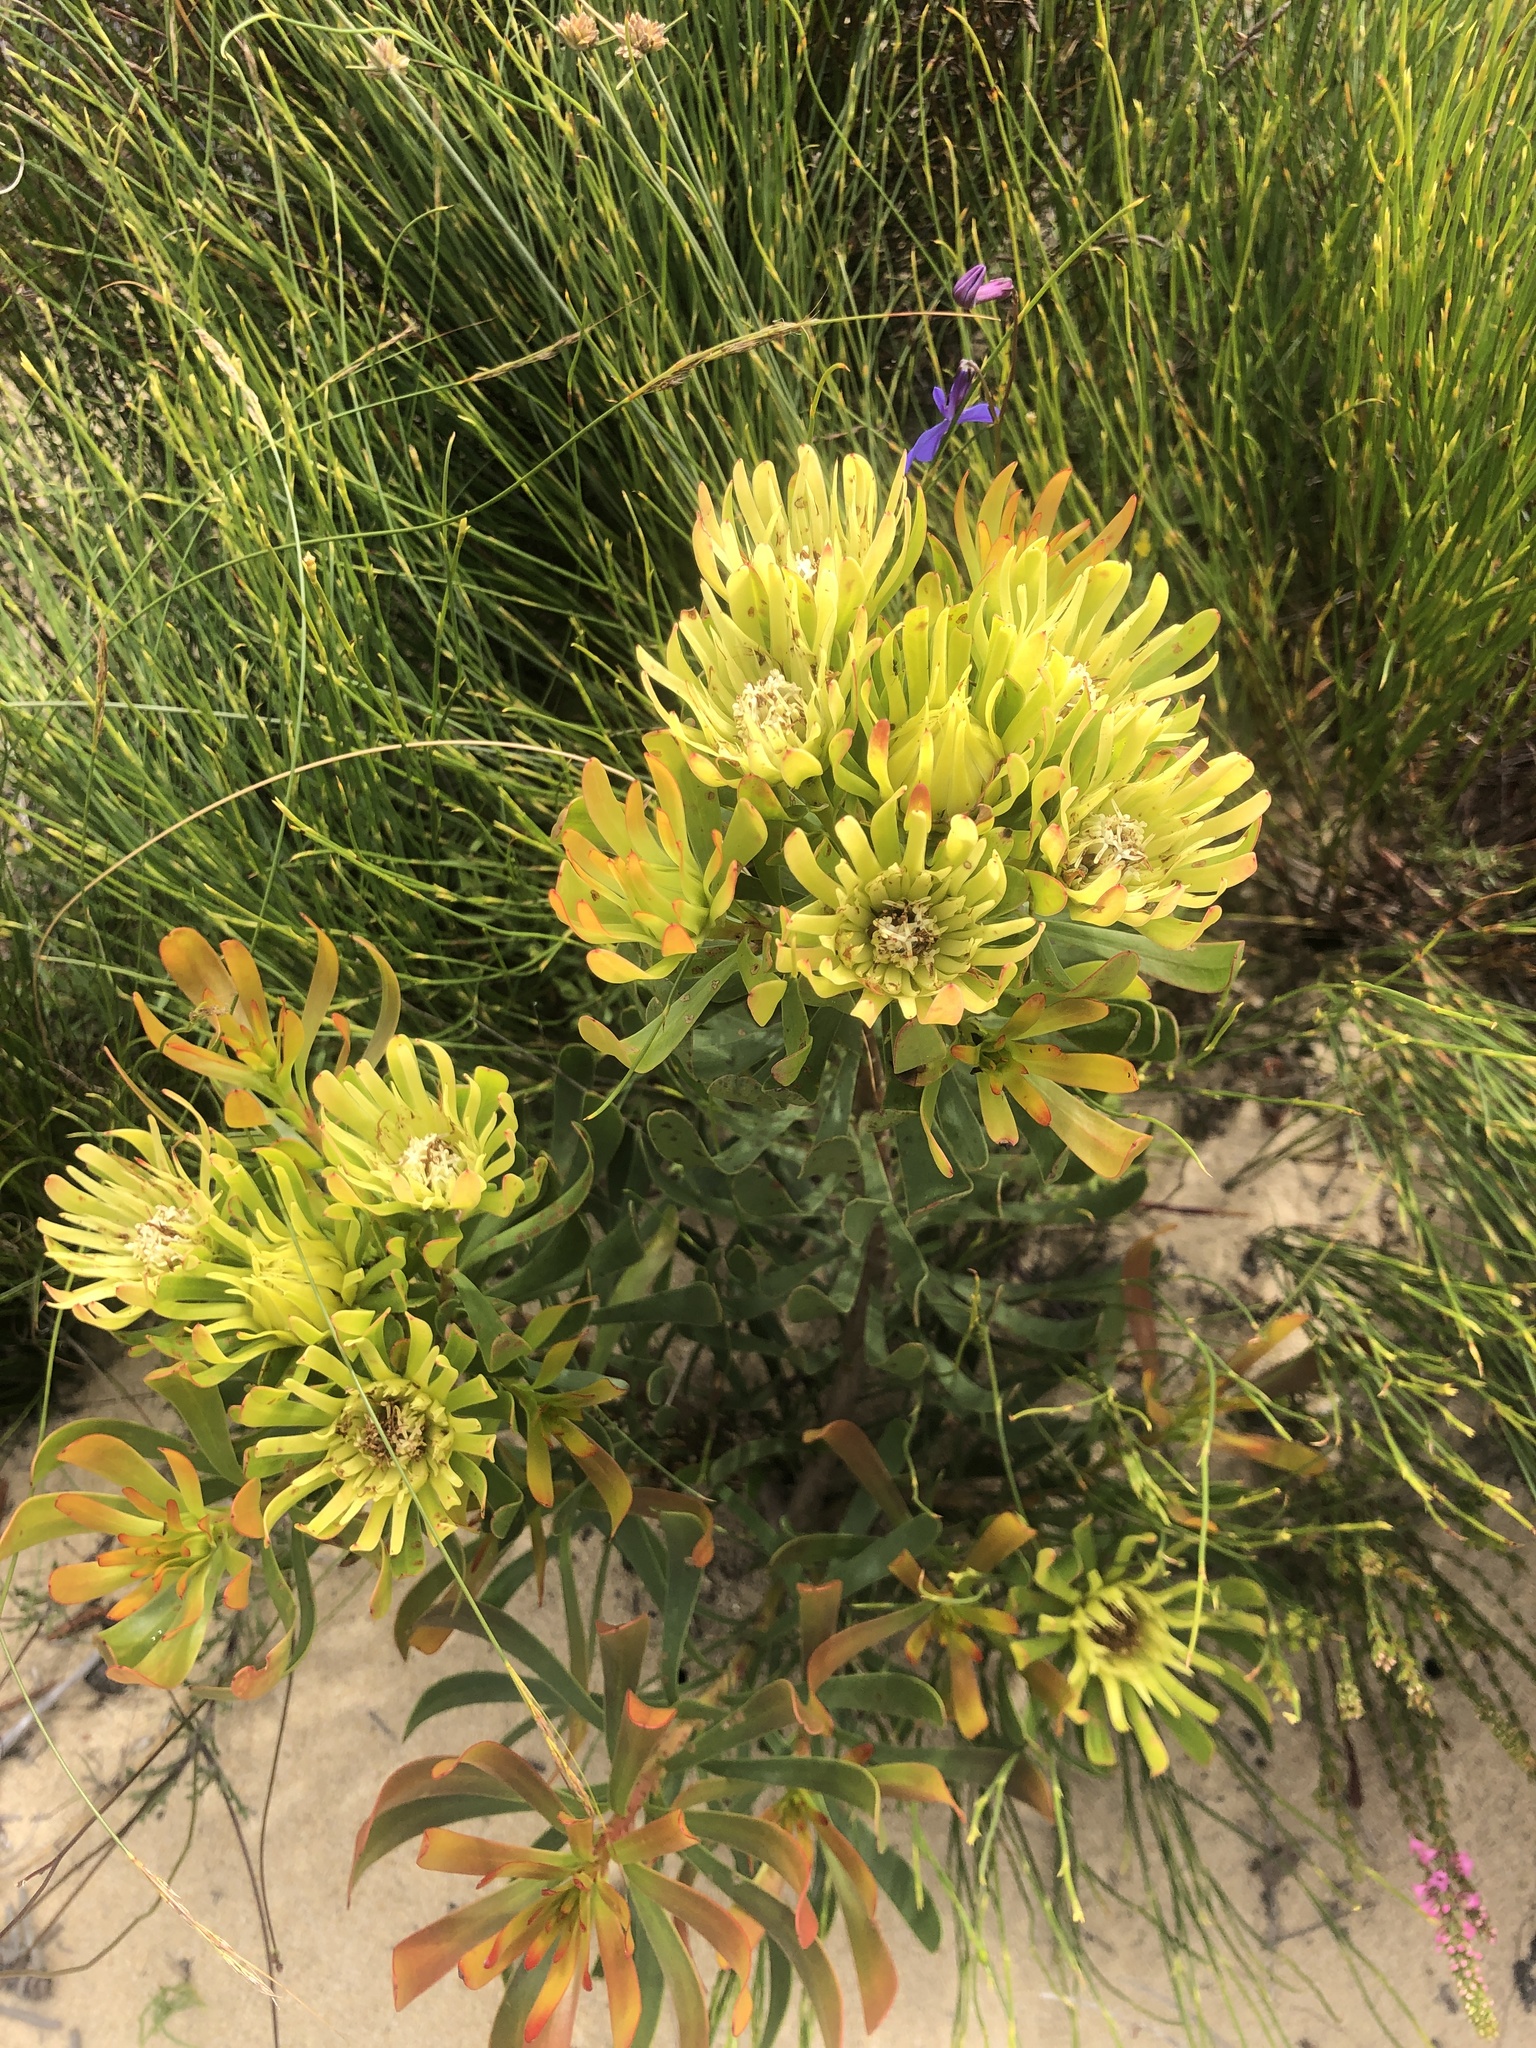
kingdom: Plantae
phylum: Tracheophyta
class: Magnoliopsida
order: Proteales
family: Proteaceae
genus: Aulax
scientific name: Aulax umbellata
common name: Broad-leaf featherbush
